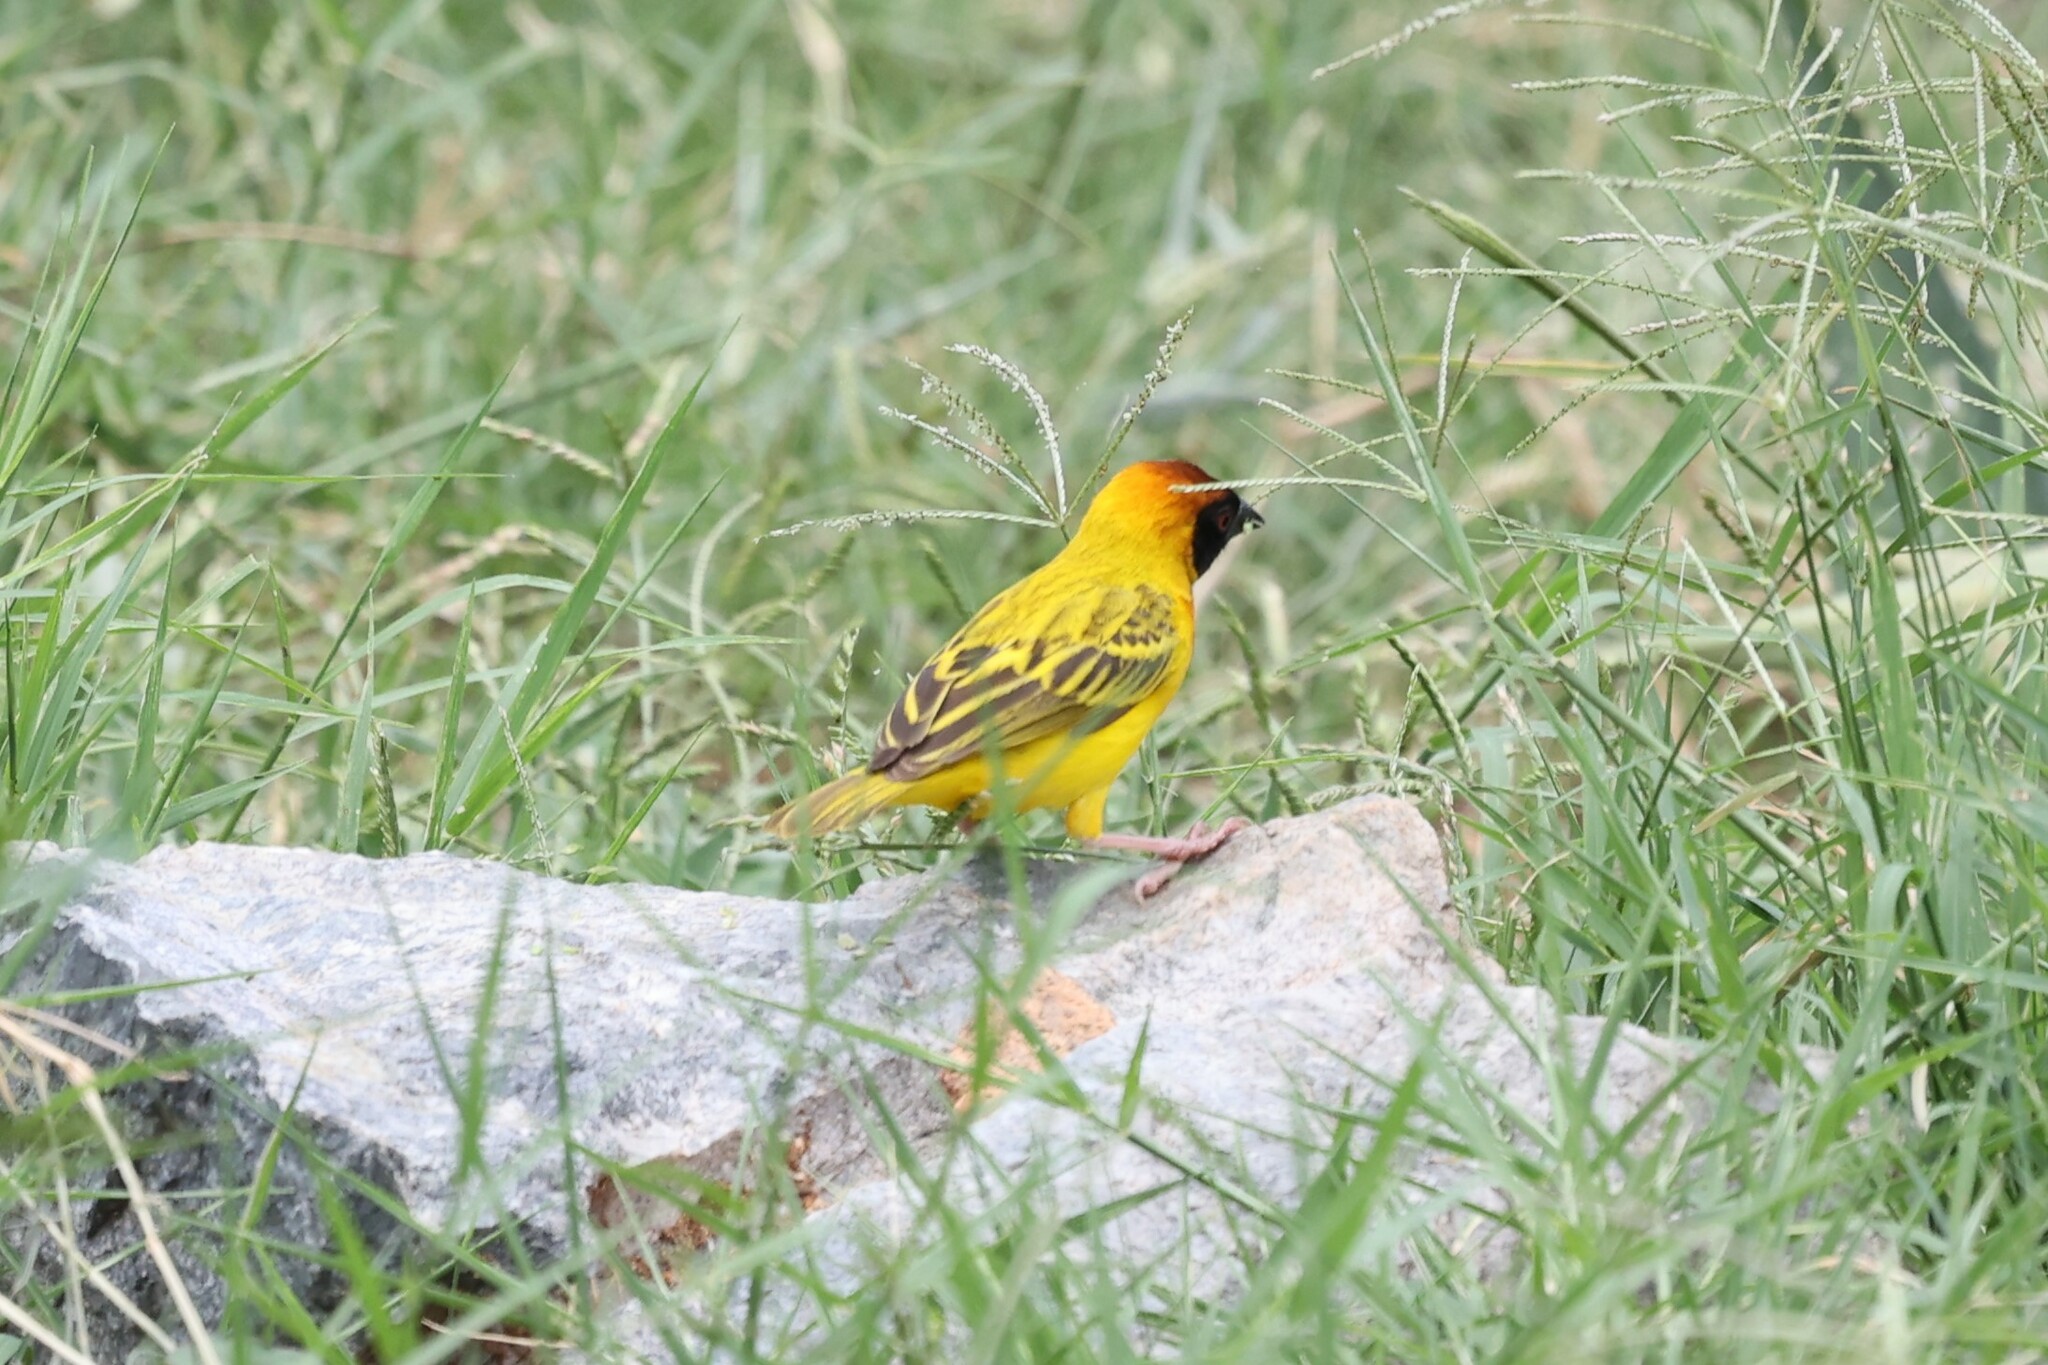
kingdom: Animalia
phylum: Chordata
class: Aves
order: Passeriformes
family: Ploceidae
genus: Ploceus
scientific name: Ploceus vitellinus
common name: Vitelline masked weaver
